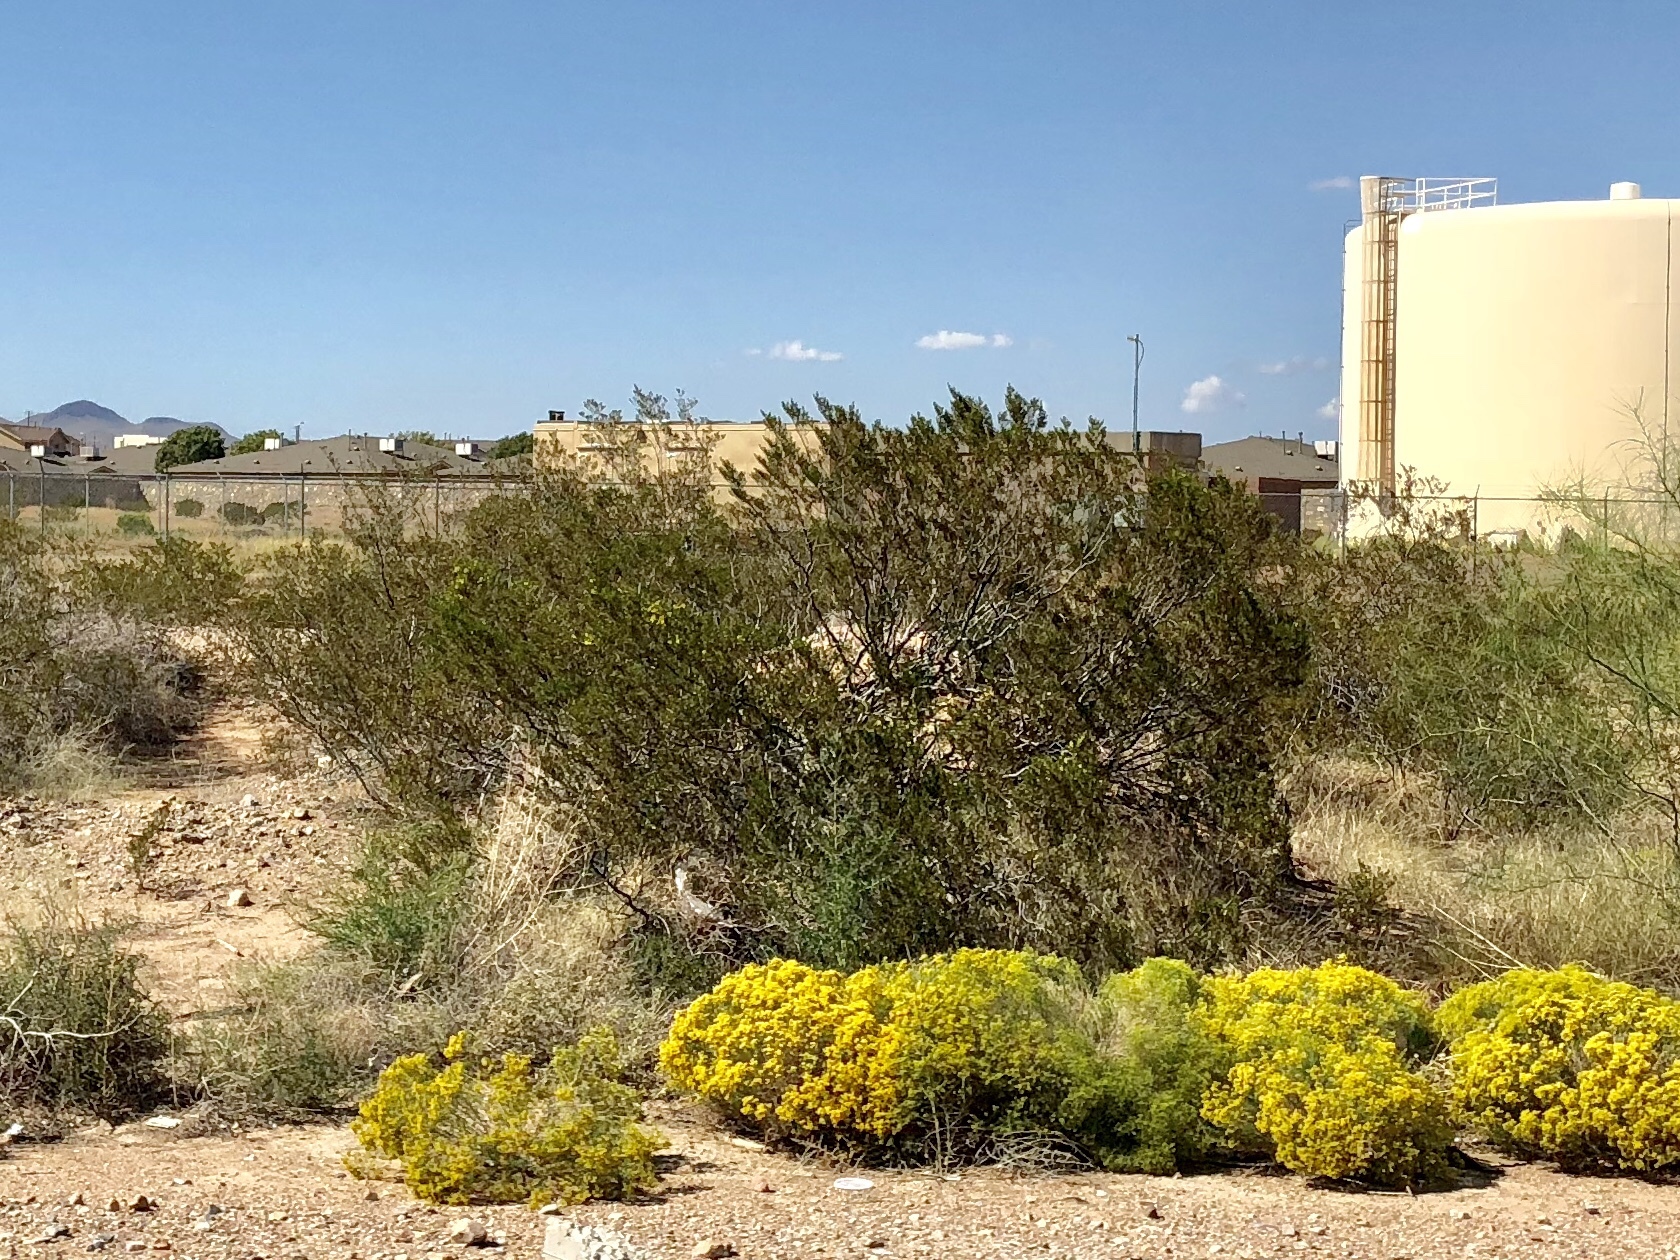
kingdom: Plantae
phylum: Tracheophyta
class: Magnoliopsida
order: Zygophyllales
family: Zygophyllaceae
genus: Larrea
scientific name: Larrea tridentata
